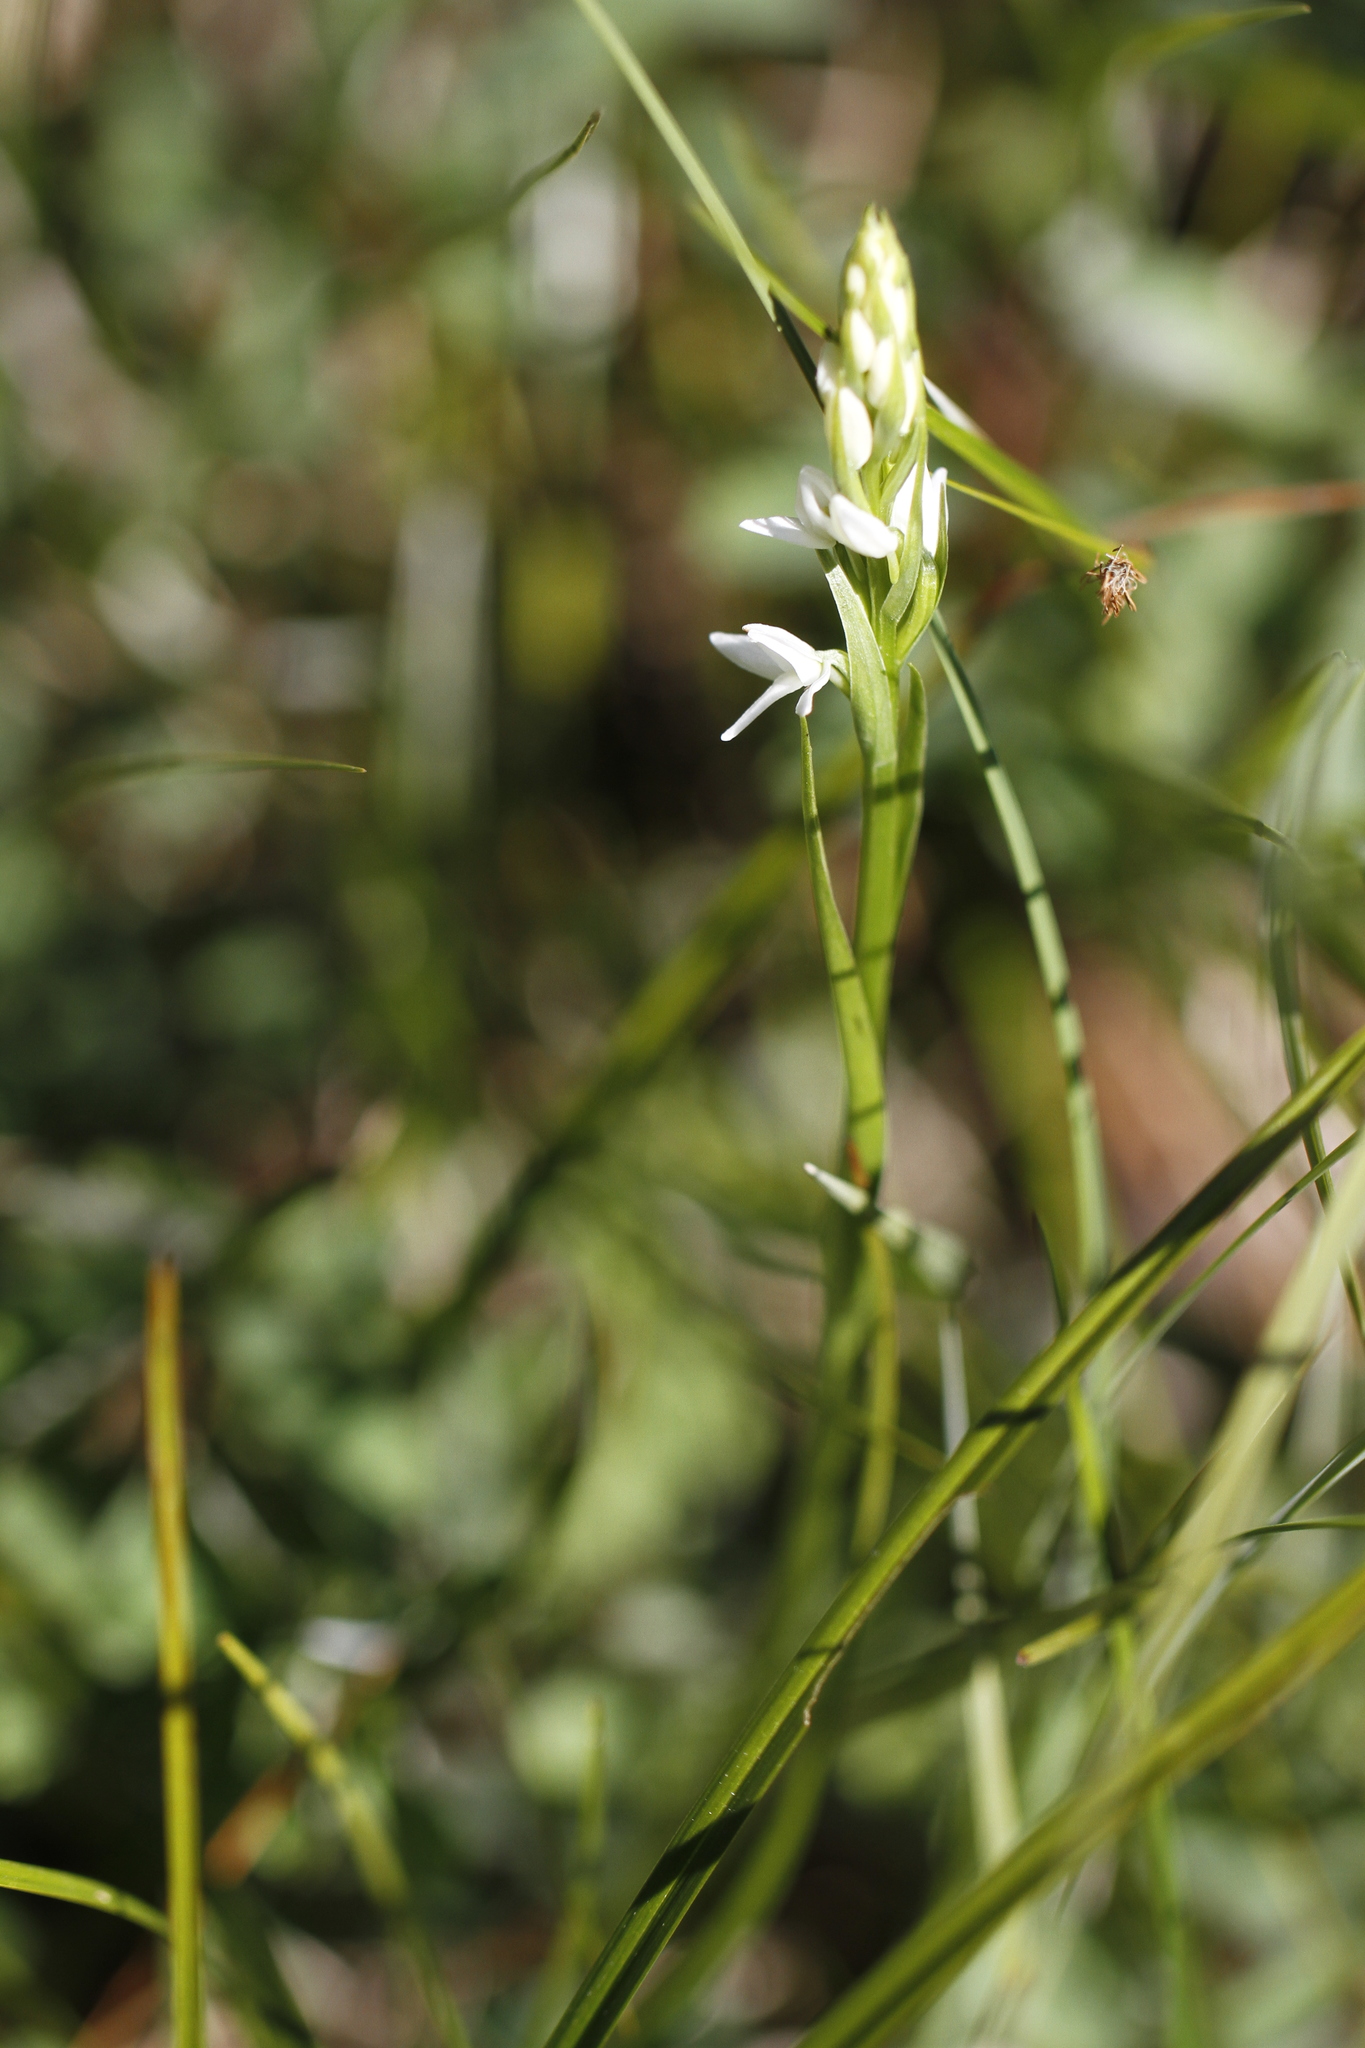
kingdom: Plantae
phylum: Tracheophyta
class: Liliopsida
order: Asparagales
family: Orchidaceae
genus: Platanthera
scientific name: Platanthera dilatata
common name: Bog candles
